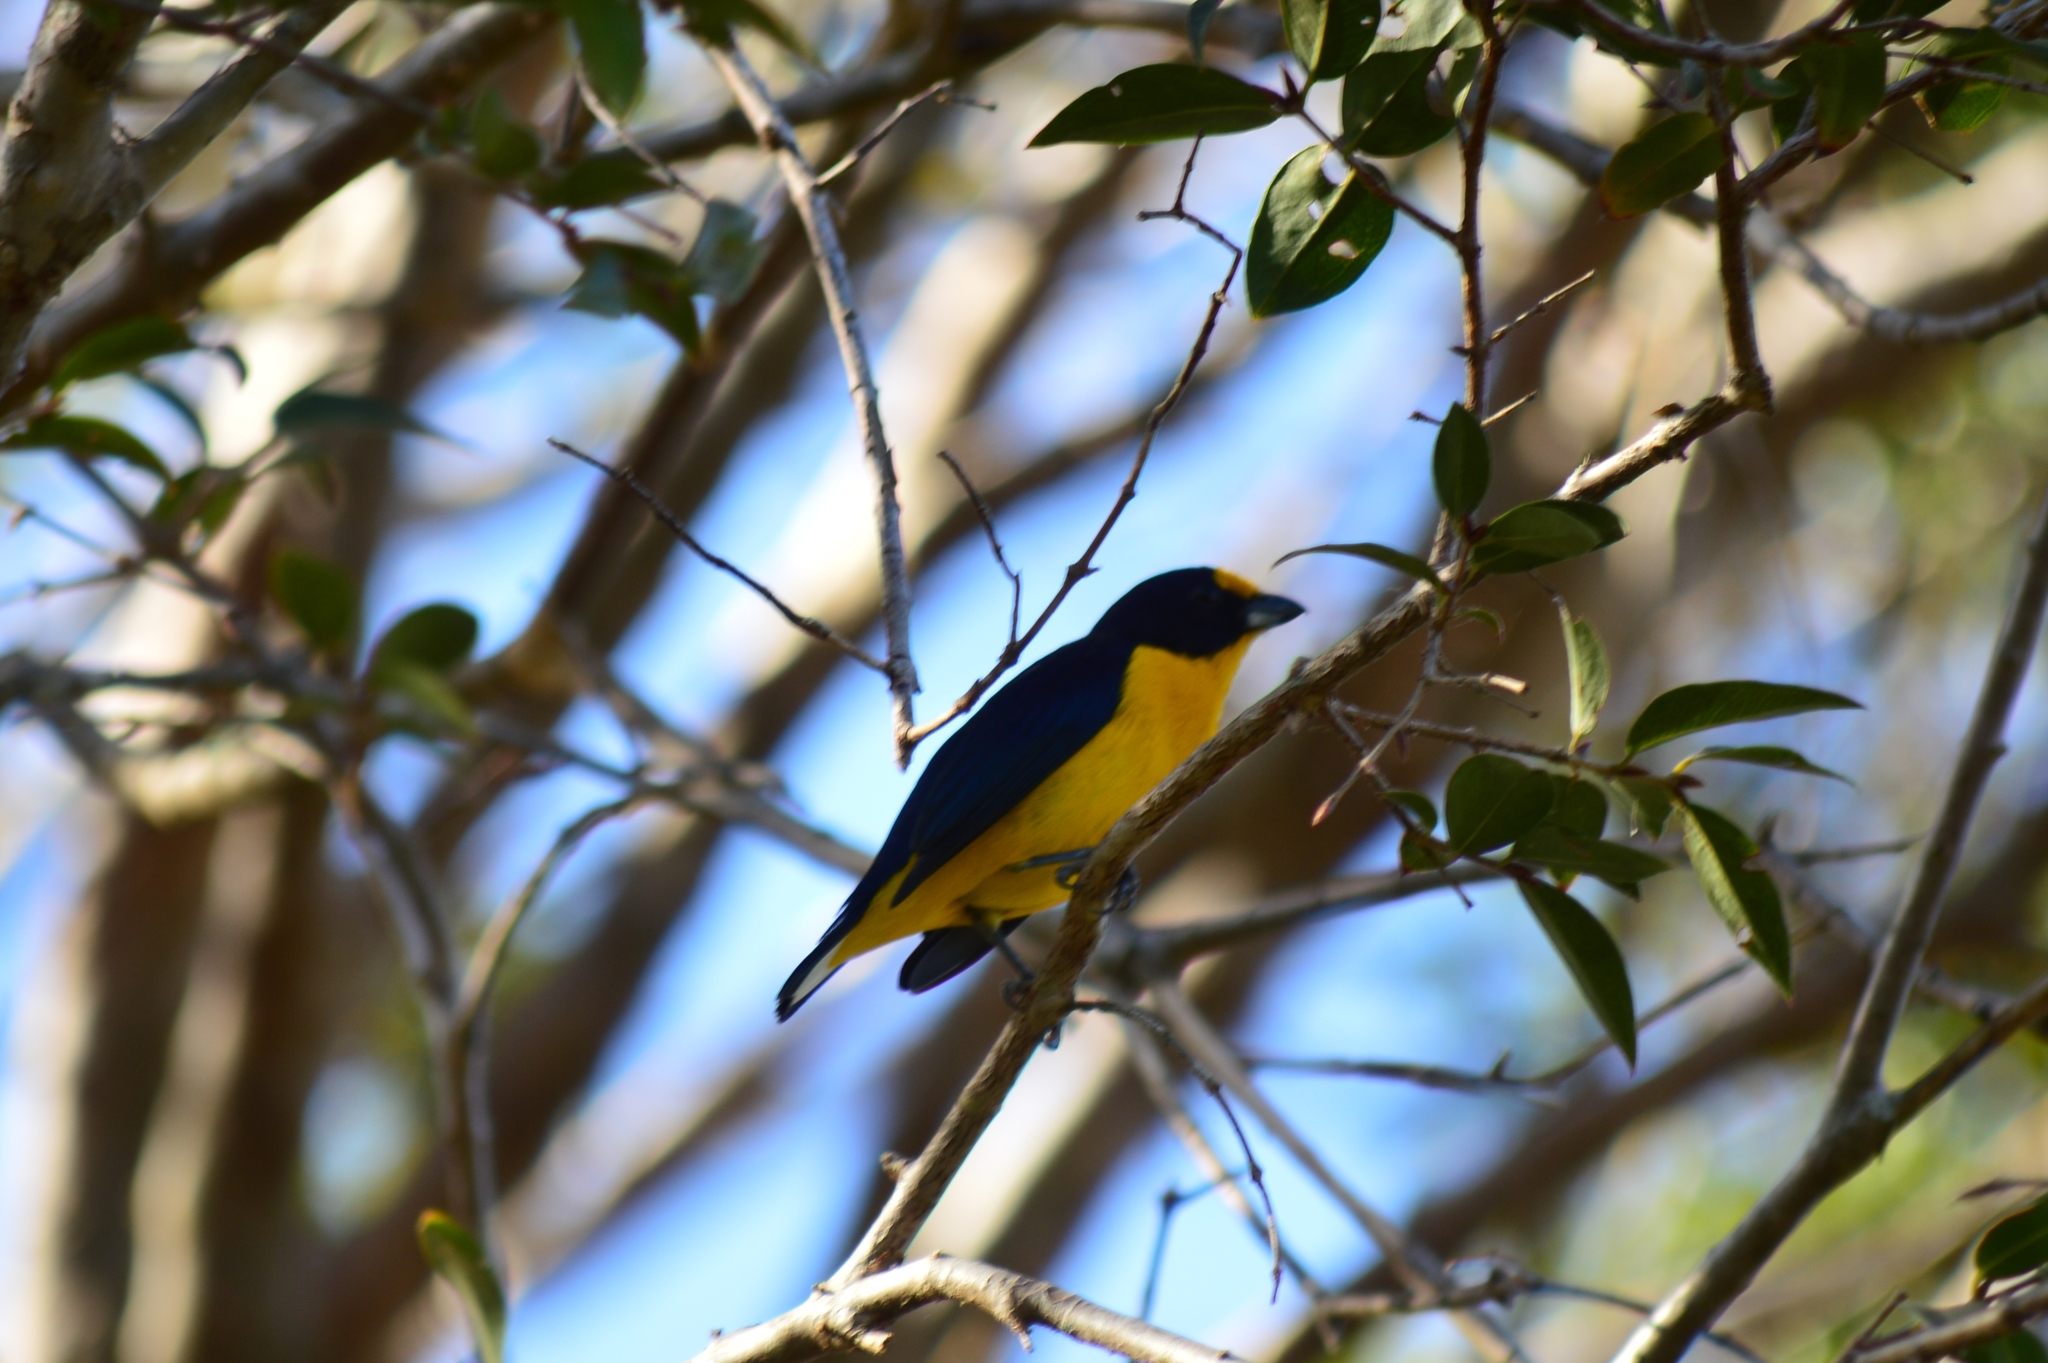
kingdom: Animalia
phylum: Chordata
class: Aves
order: Passeriformes
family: Fringillidae
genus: Euphonia
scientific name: Euphonia violacea
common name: Violaceous euphonia
